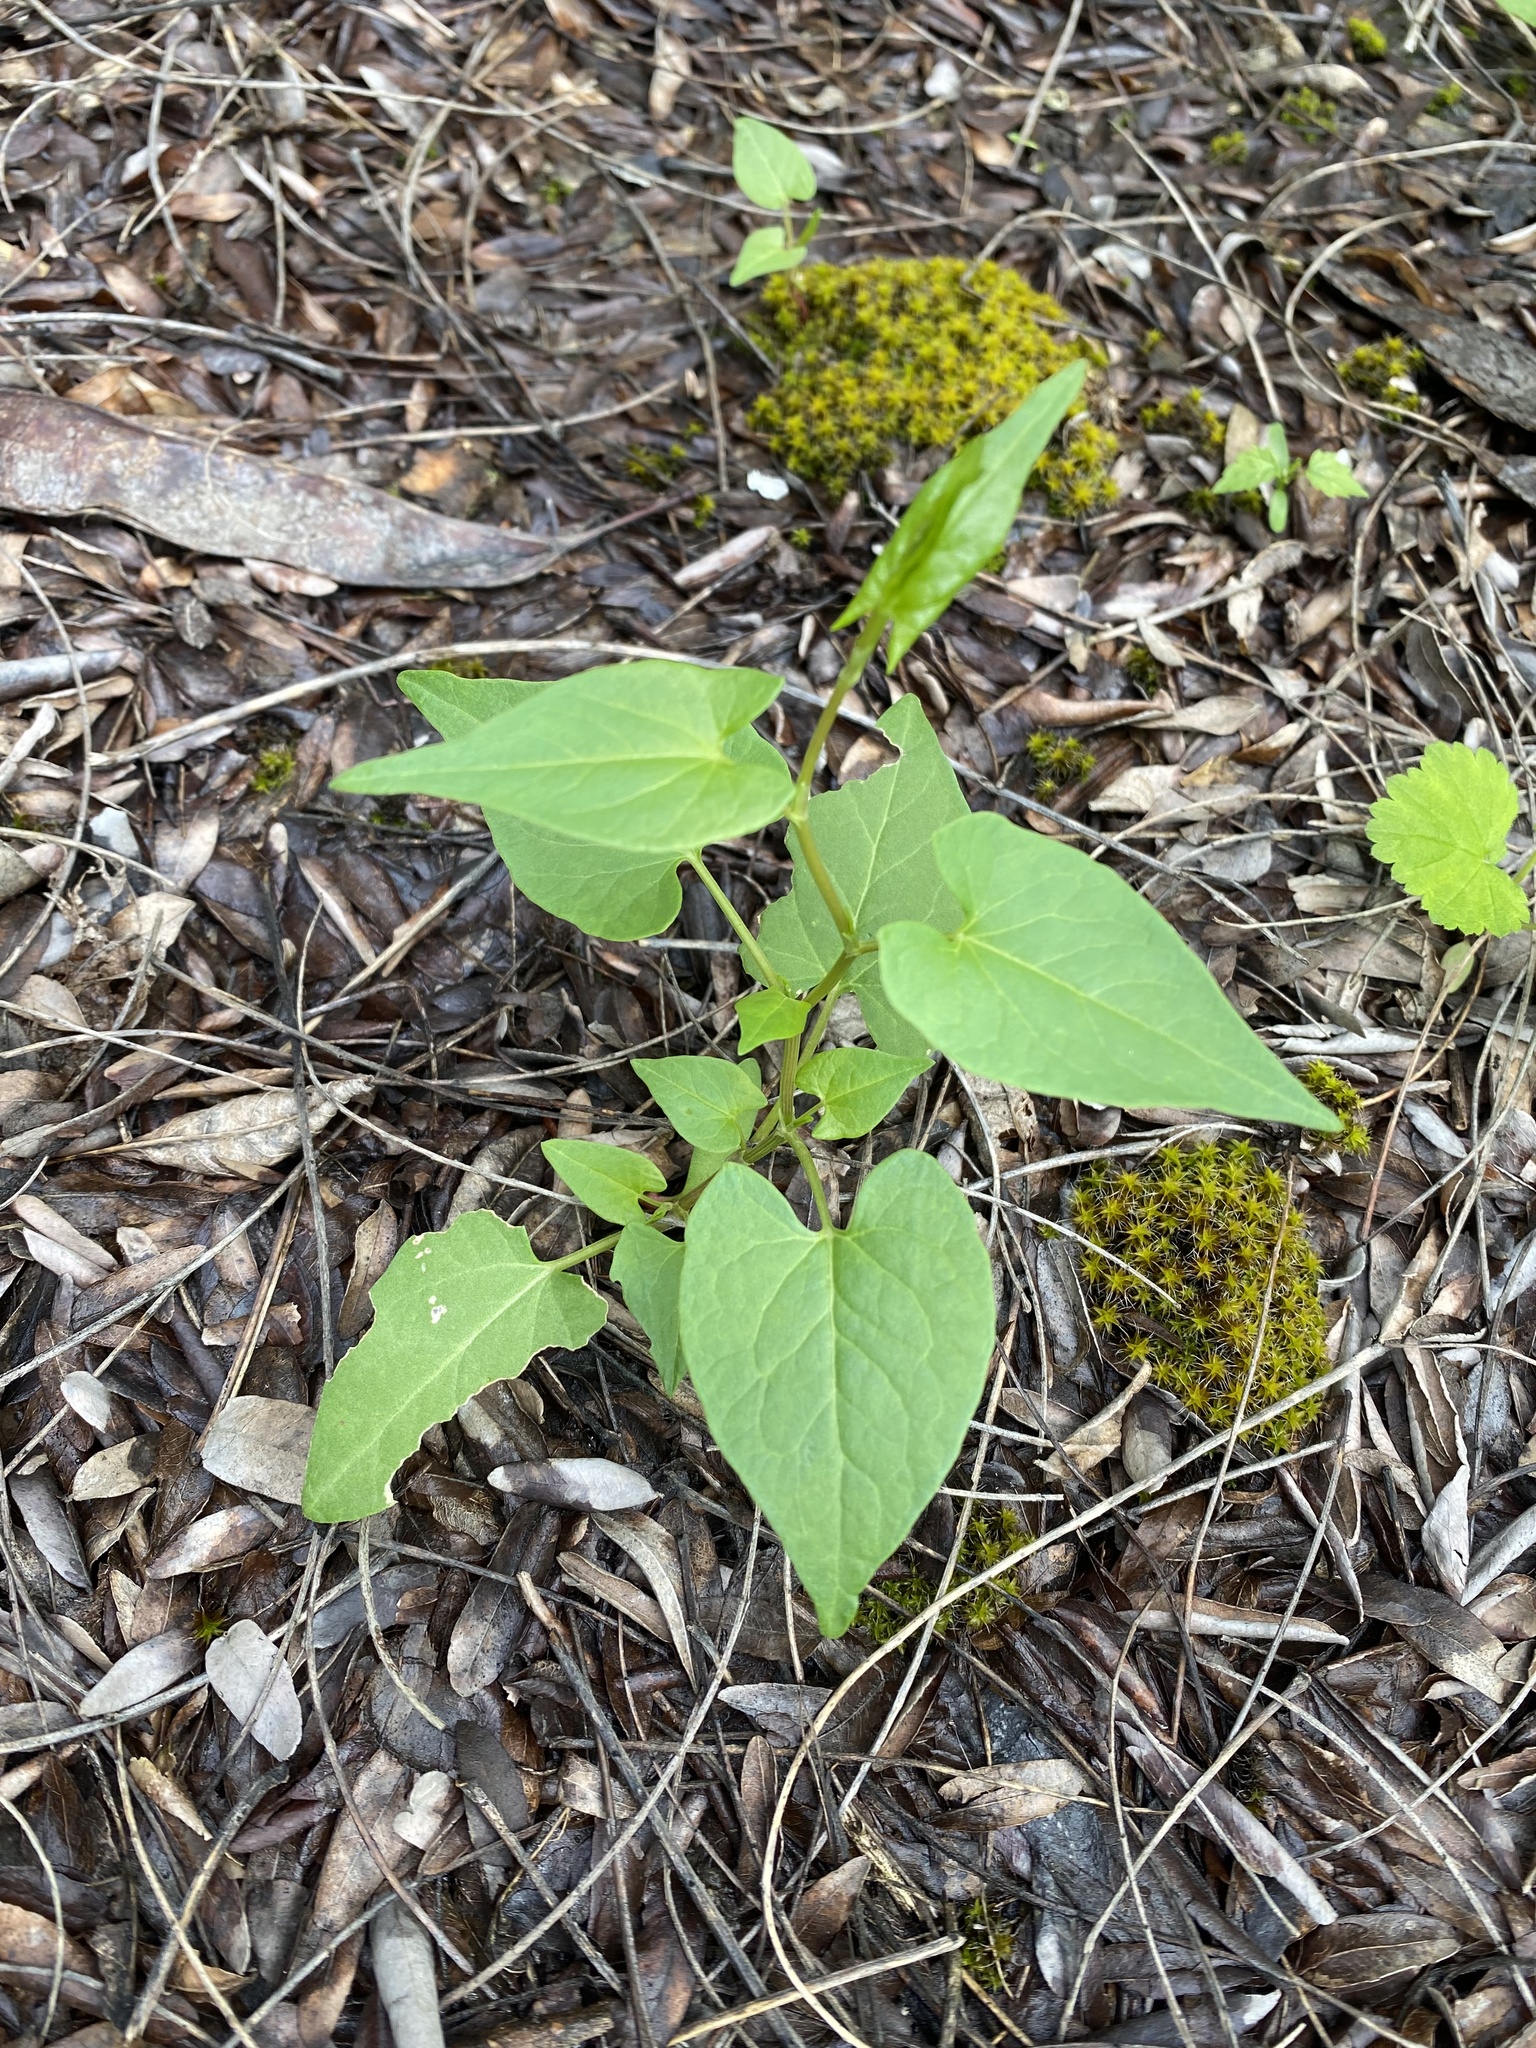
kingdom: Plantae
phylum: Tracheophyta
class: Magnoliopsida
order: Caryophyllales
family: Polygonaceae
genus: Fallopia
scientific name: Fallopia convolvulus
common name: Black bindweed
